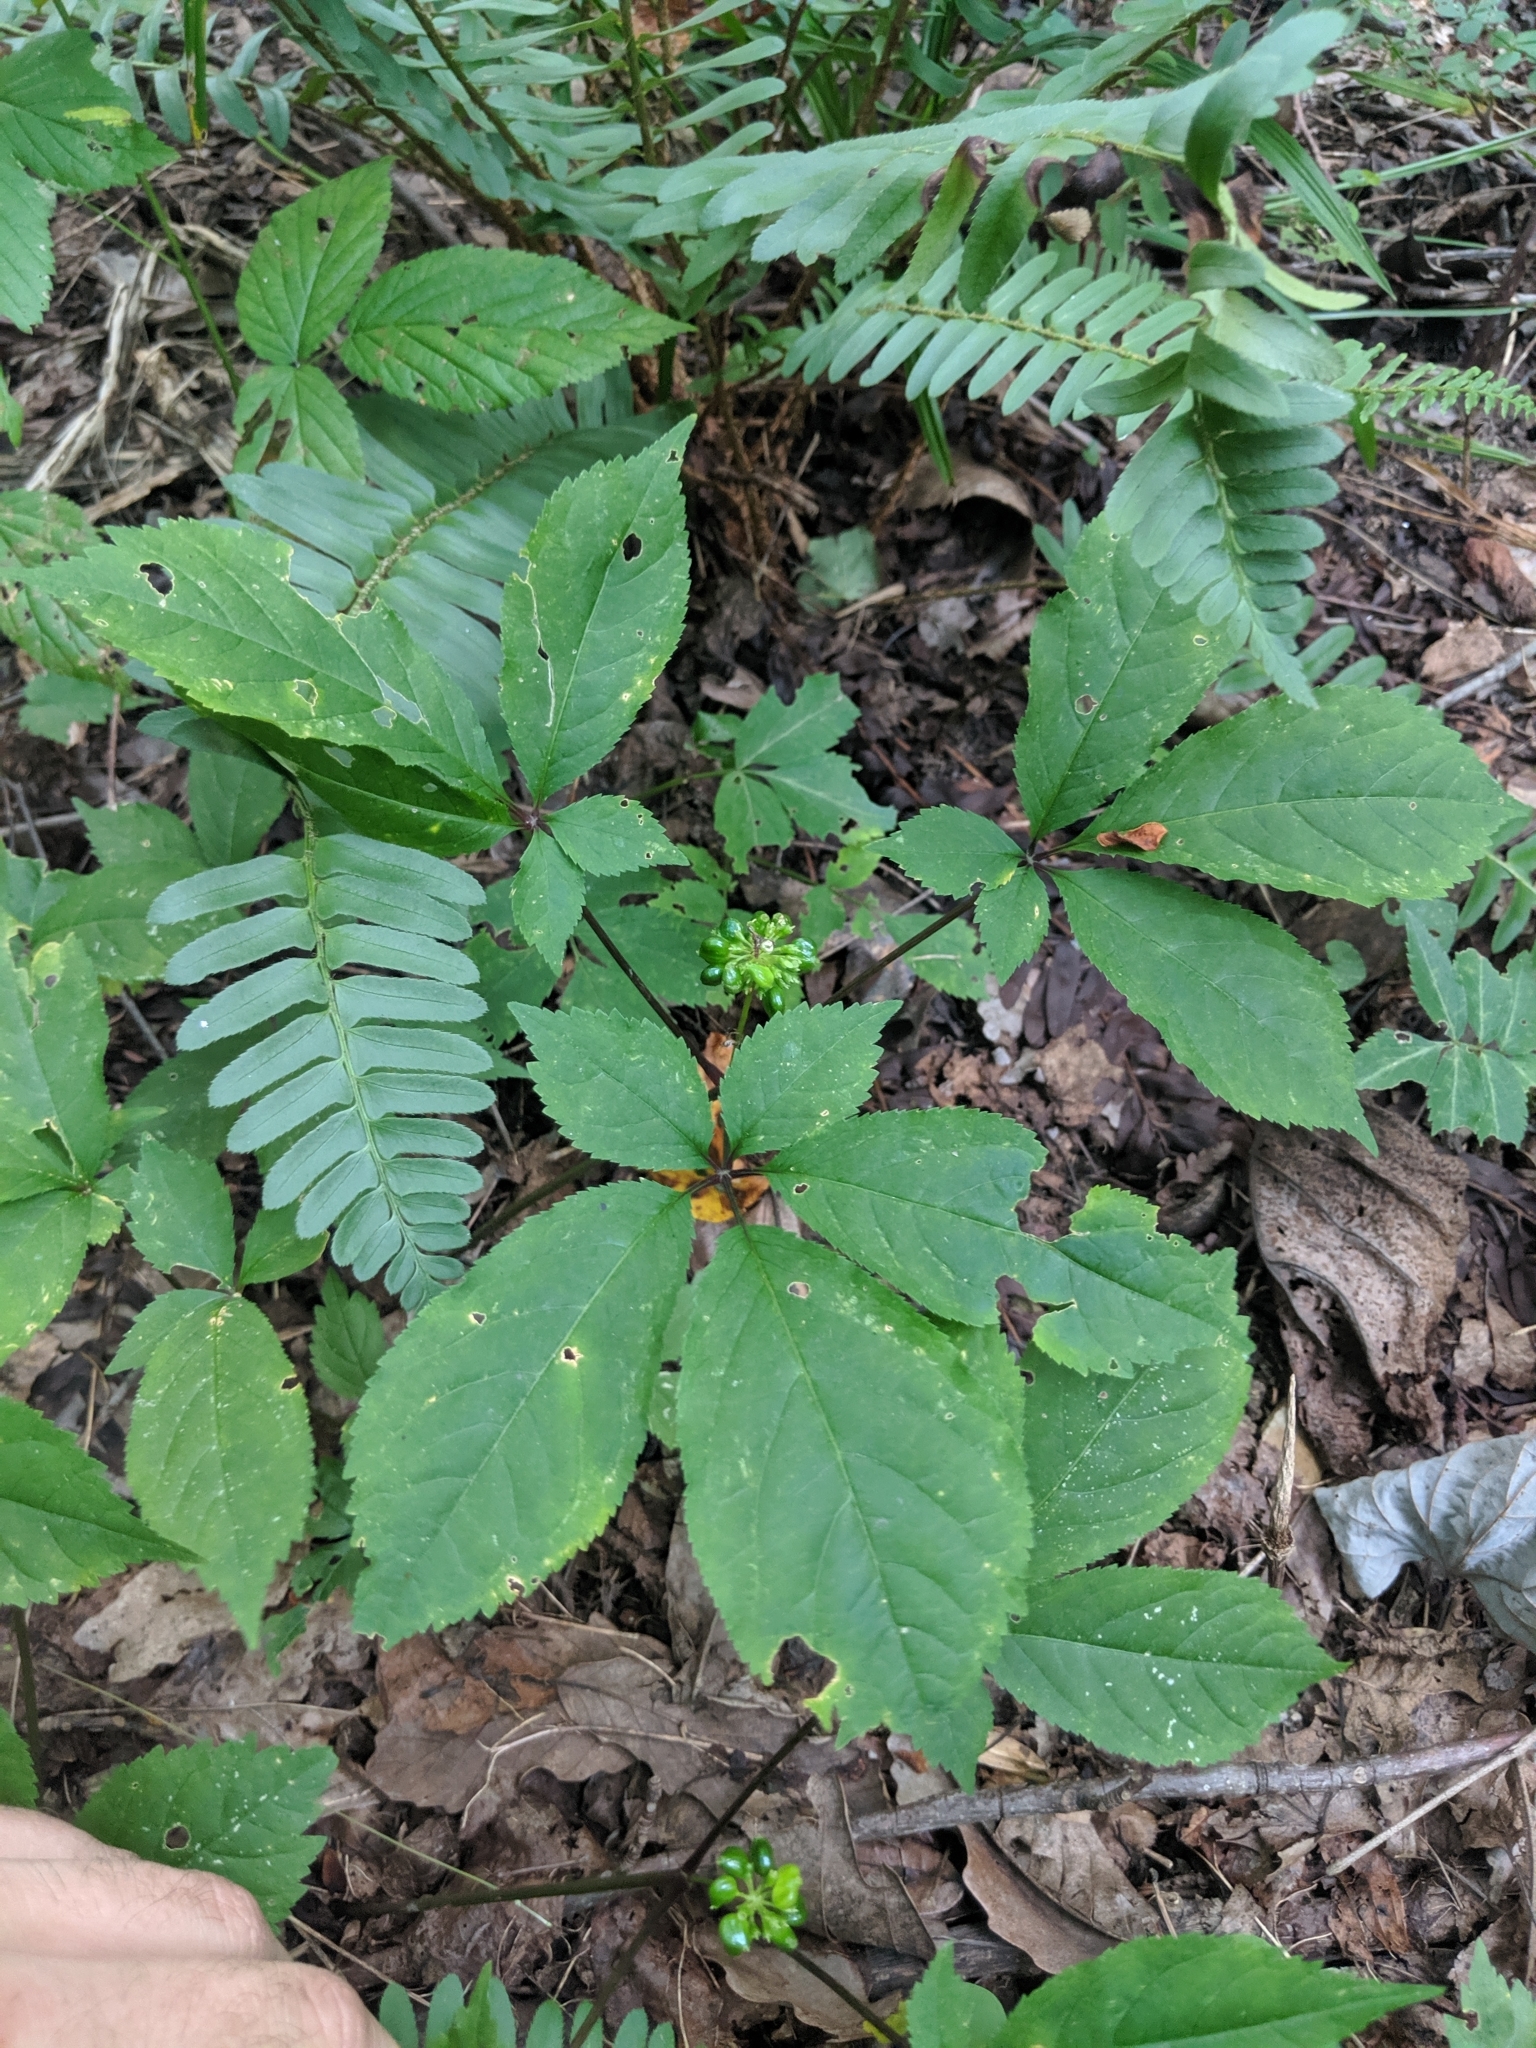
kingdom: Plantae
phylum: Tracheophyta
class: Magnoliopsida
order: Apiales
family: Araliaceae
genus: Panax
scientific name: Panax quinquefolius
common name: American ginseng
